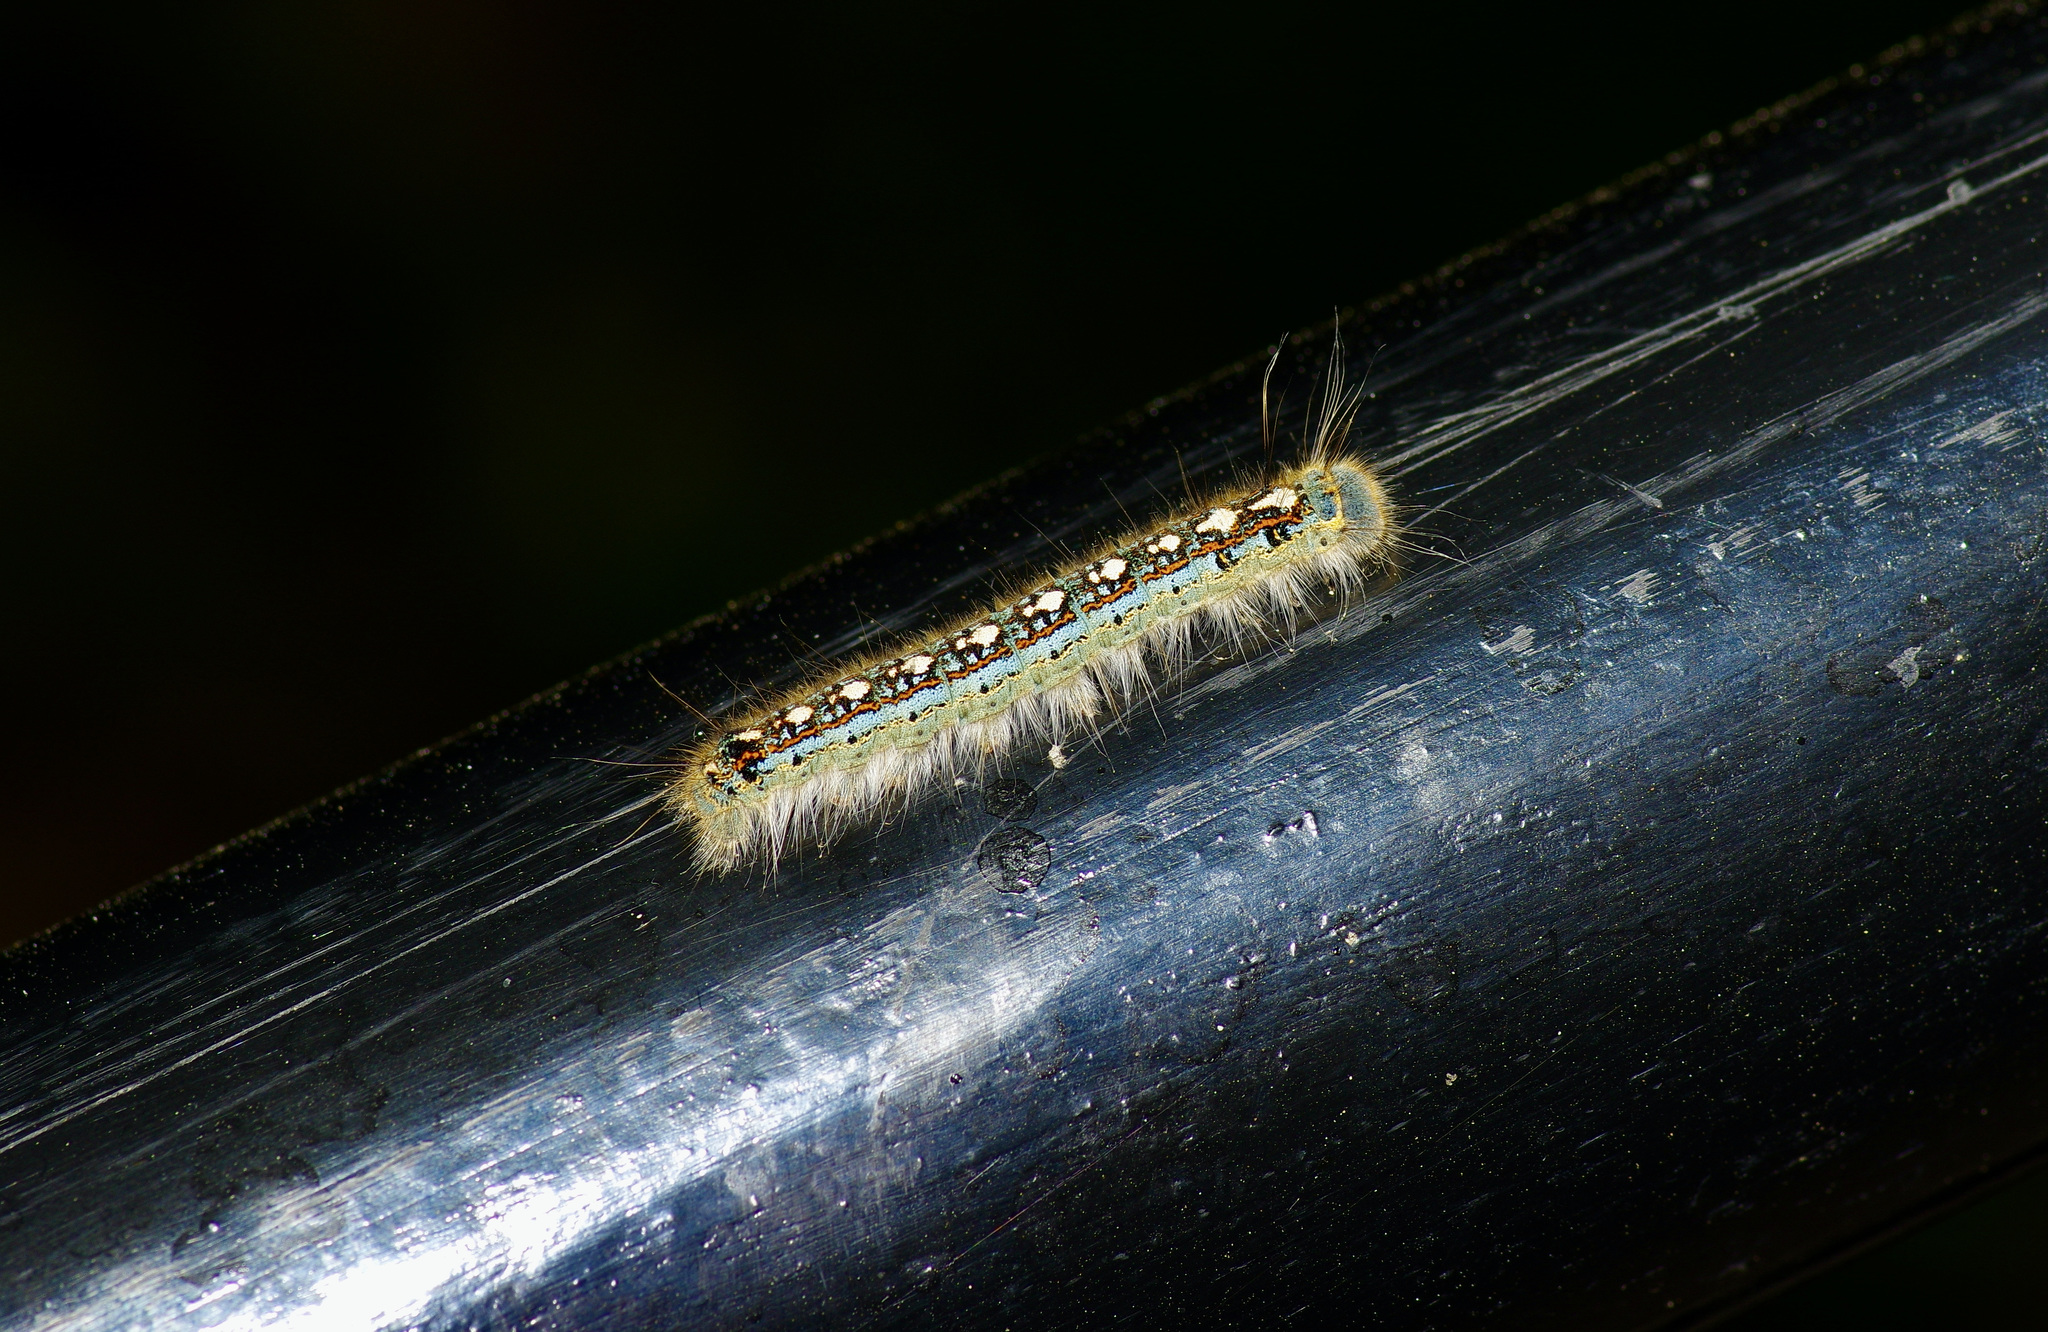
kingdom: Animalia
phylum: Arthropoda
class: Insecta
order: Lepidoptera
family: Lasiocampidae
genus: Malacosoma
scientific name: Malacosoma disstria
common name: Forest tent caterpillar
